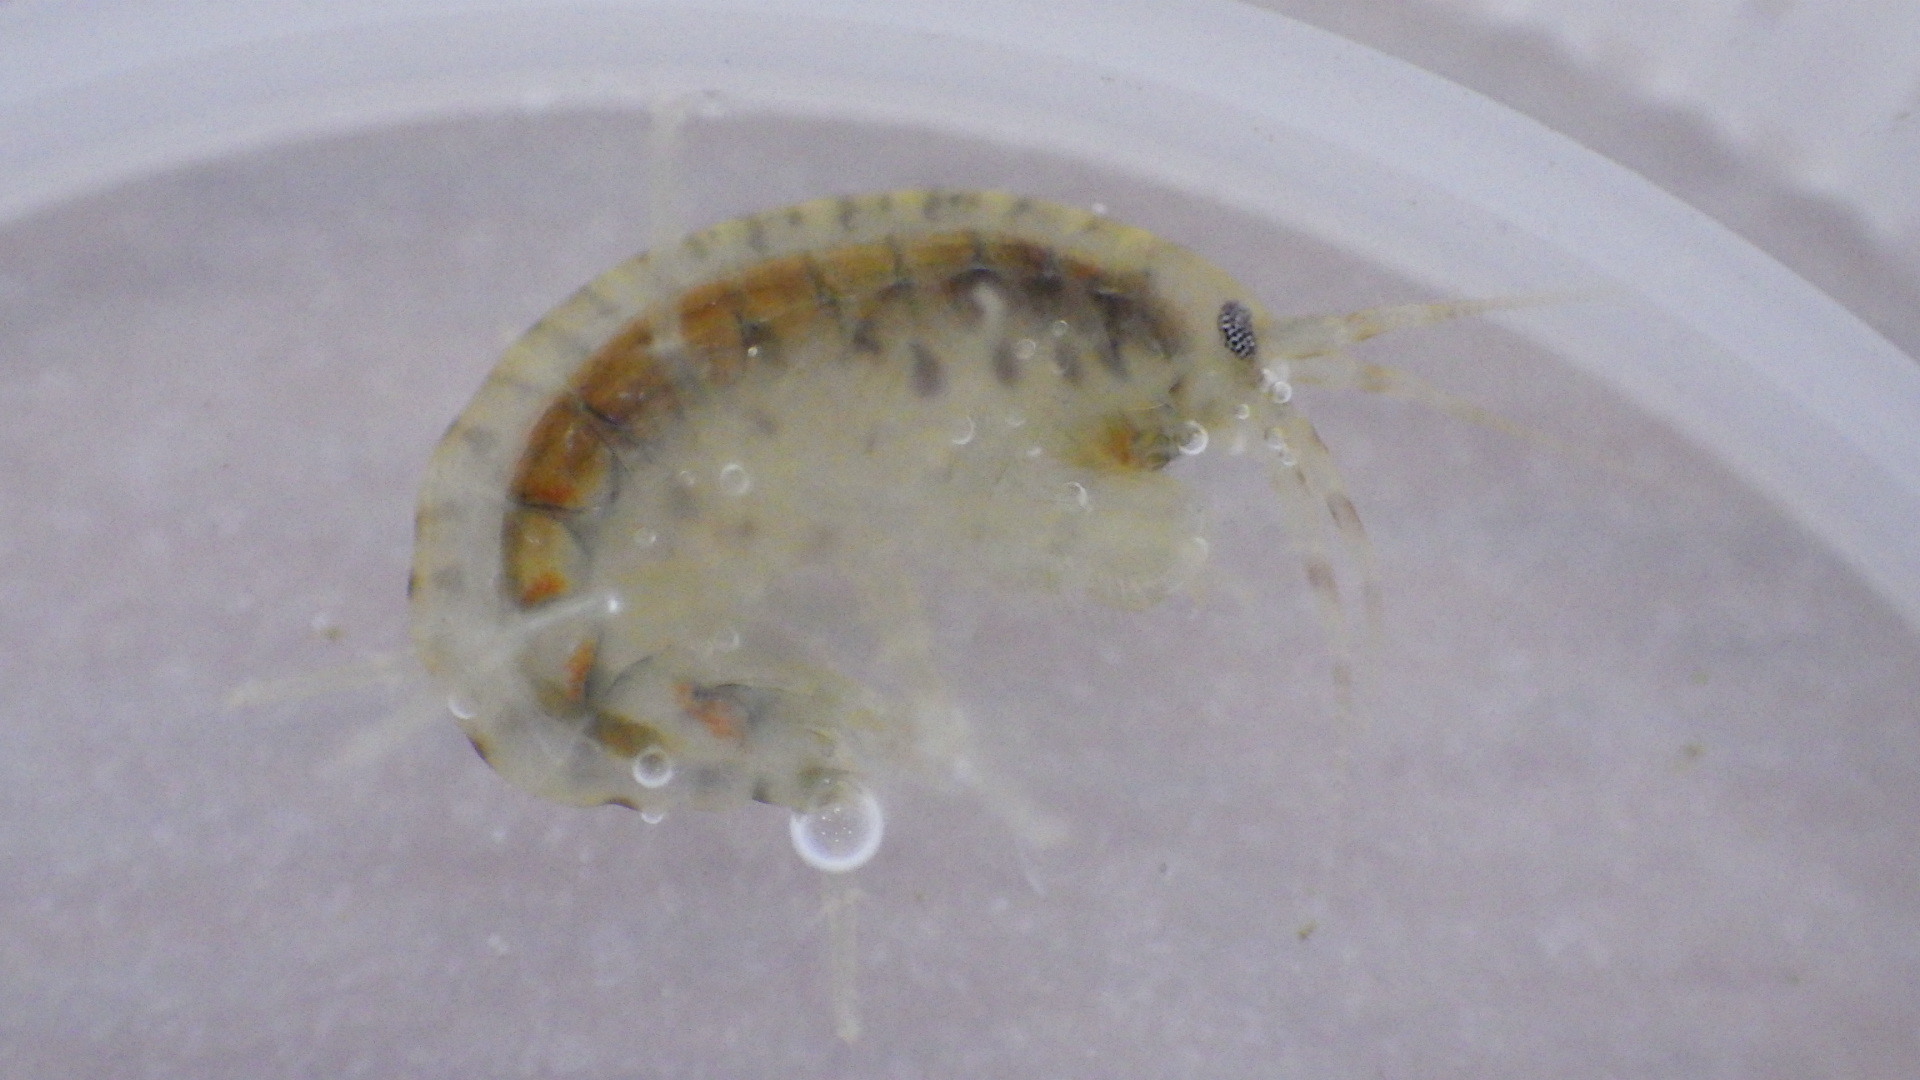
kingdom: Animalia
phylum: Arthropoda
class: Malacostraca
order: Amphipoda
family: Gammaridae
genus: Gammarus
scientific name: Gammarus fasciatus
